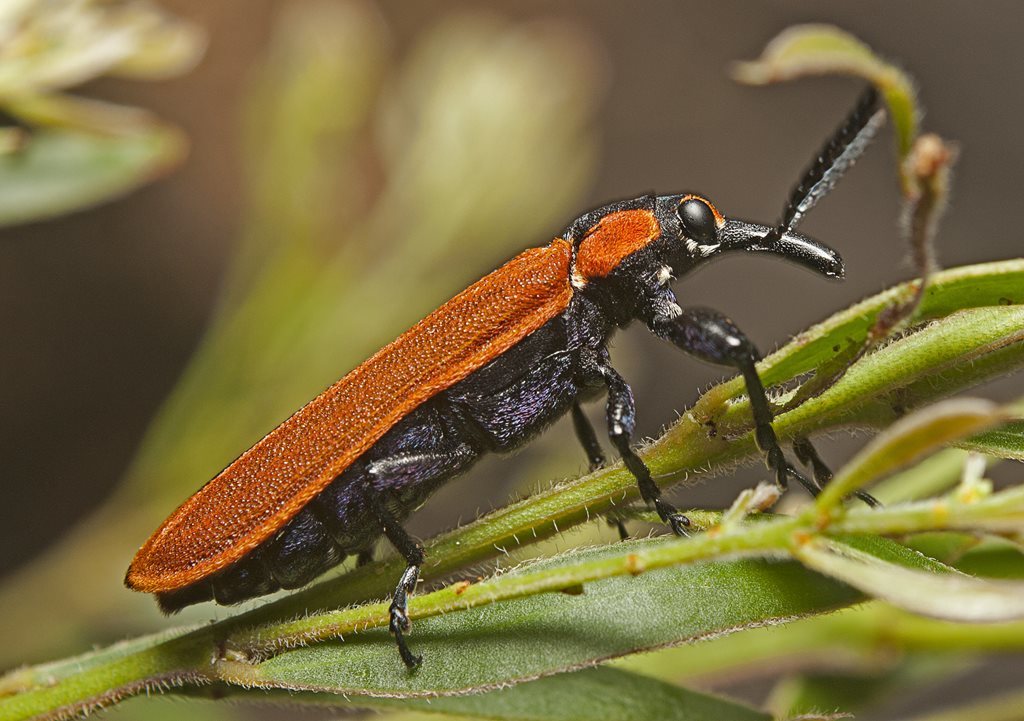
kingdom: Animalia
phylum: Arthropoda
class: Insecta
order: Coleoptera
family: Belidae
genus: Rhinotia
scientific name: Rhinotia haemoptera
